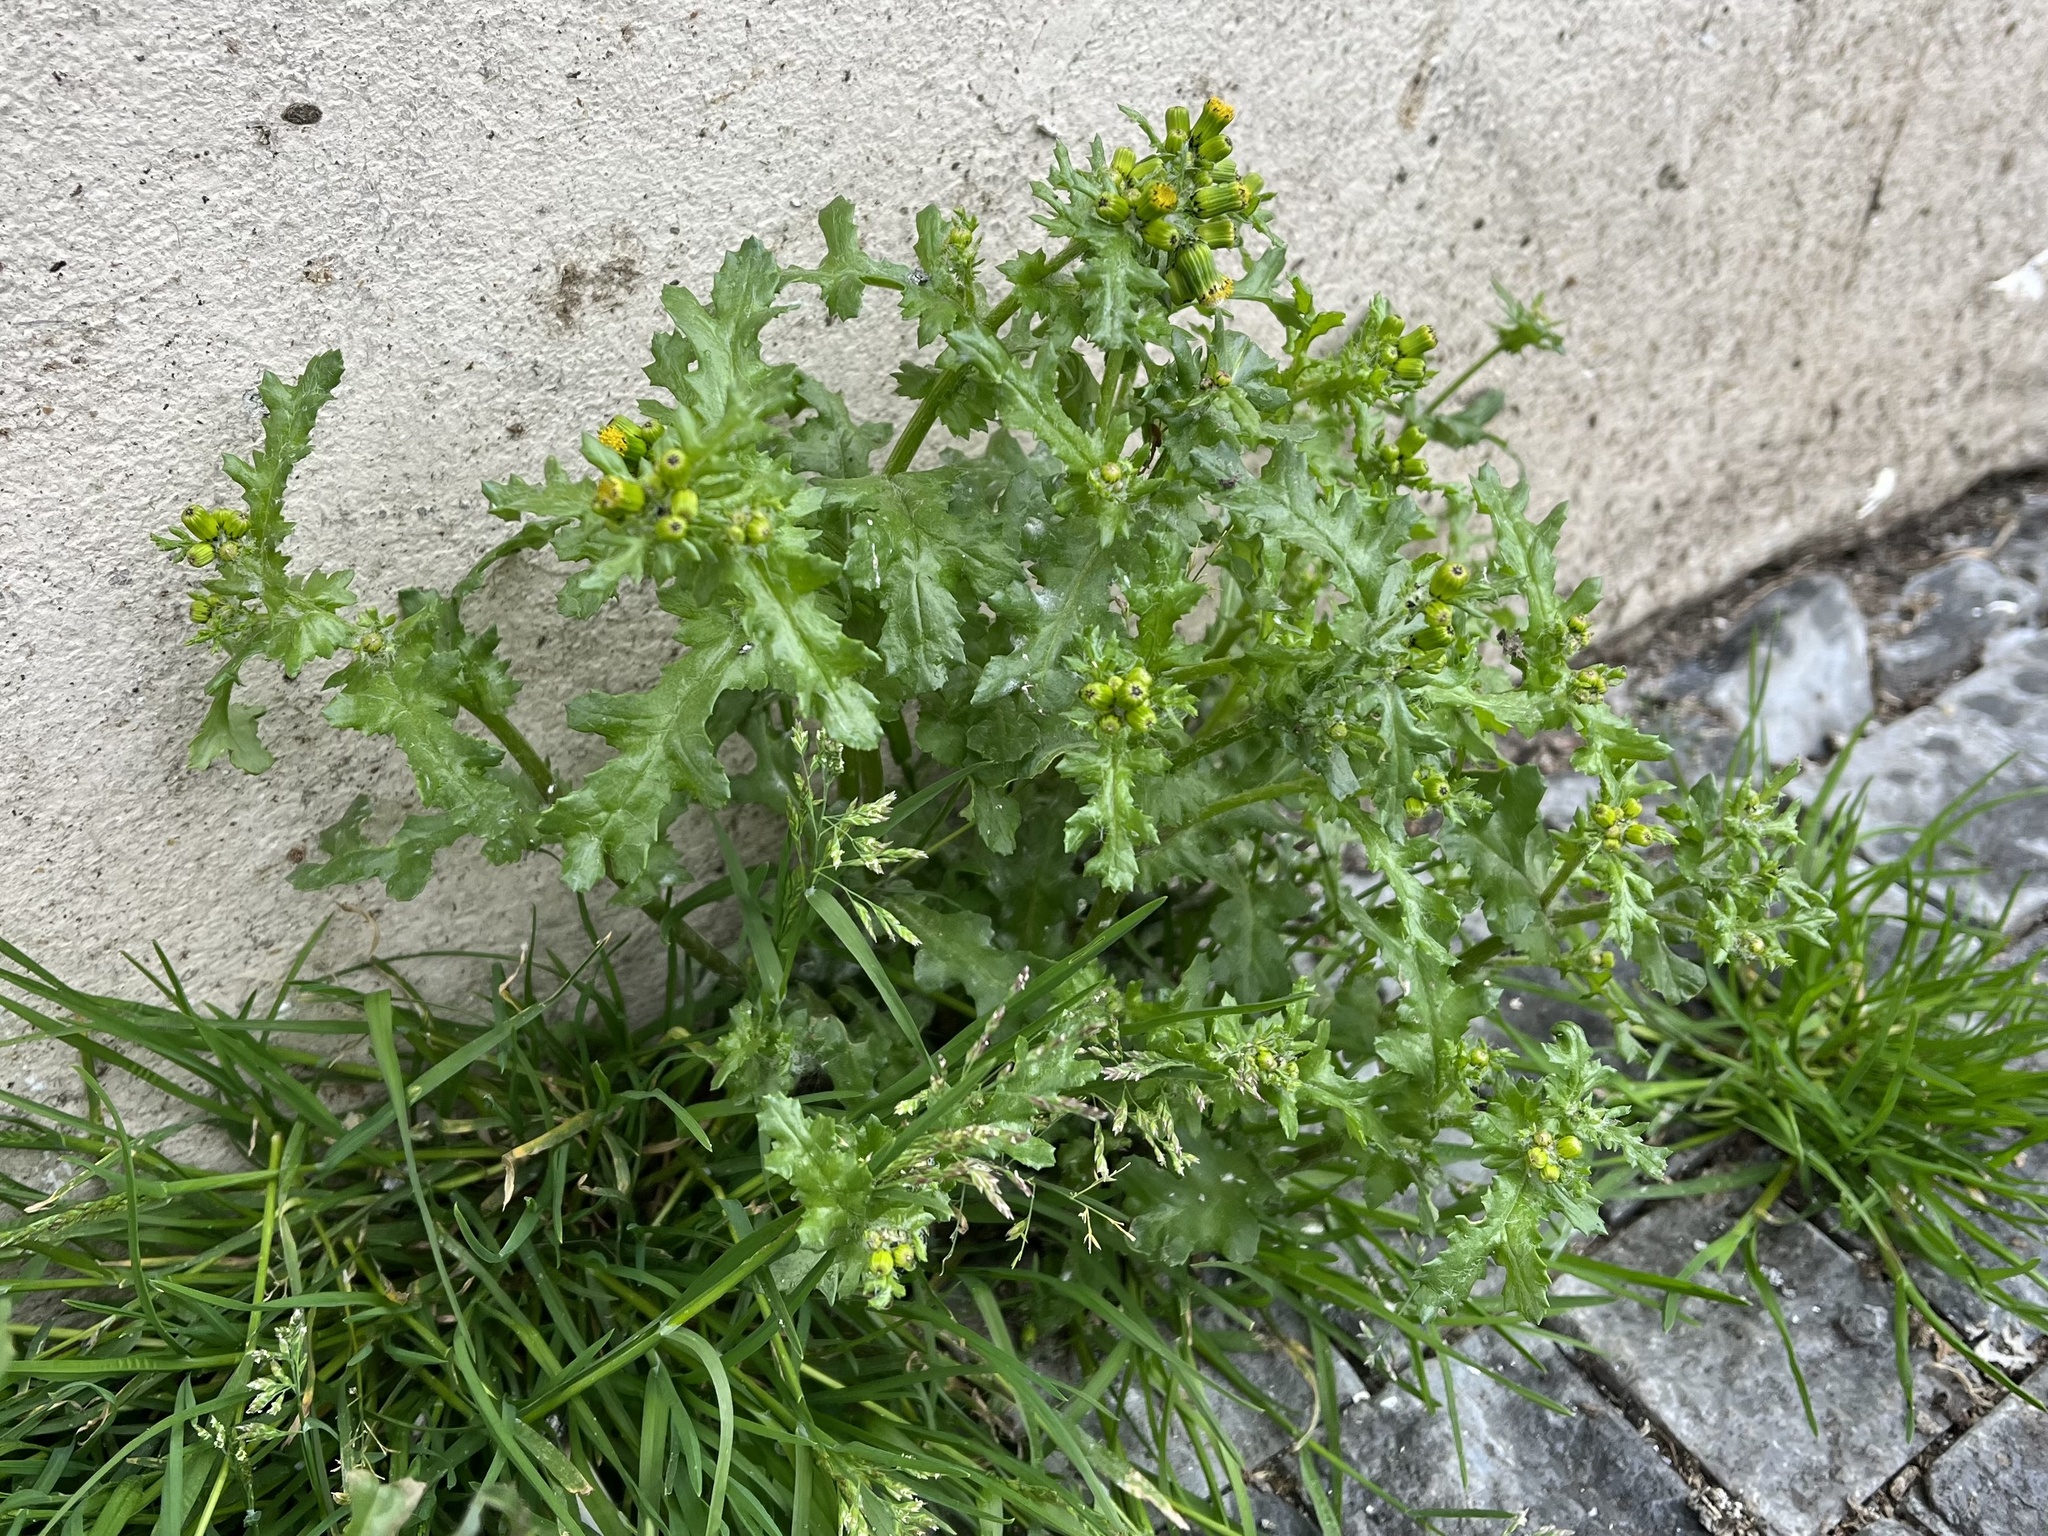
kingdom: Plantae
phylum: Tracheophyta
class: Magnoliopsida
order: Asterales
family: Asteraceae
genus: Senecio
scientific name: Senecio vulgaris
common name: Old-man-in-the-spring
